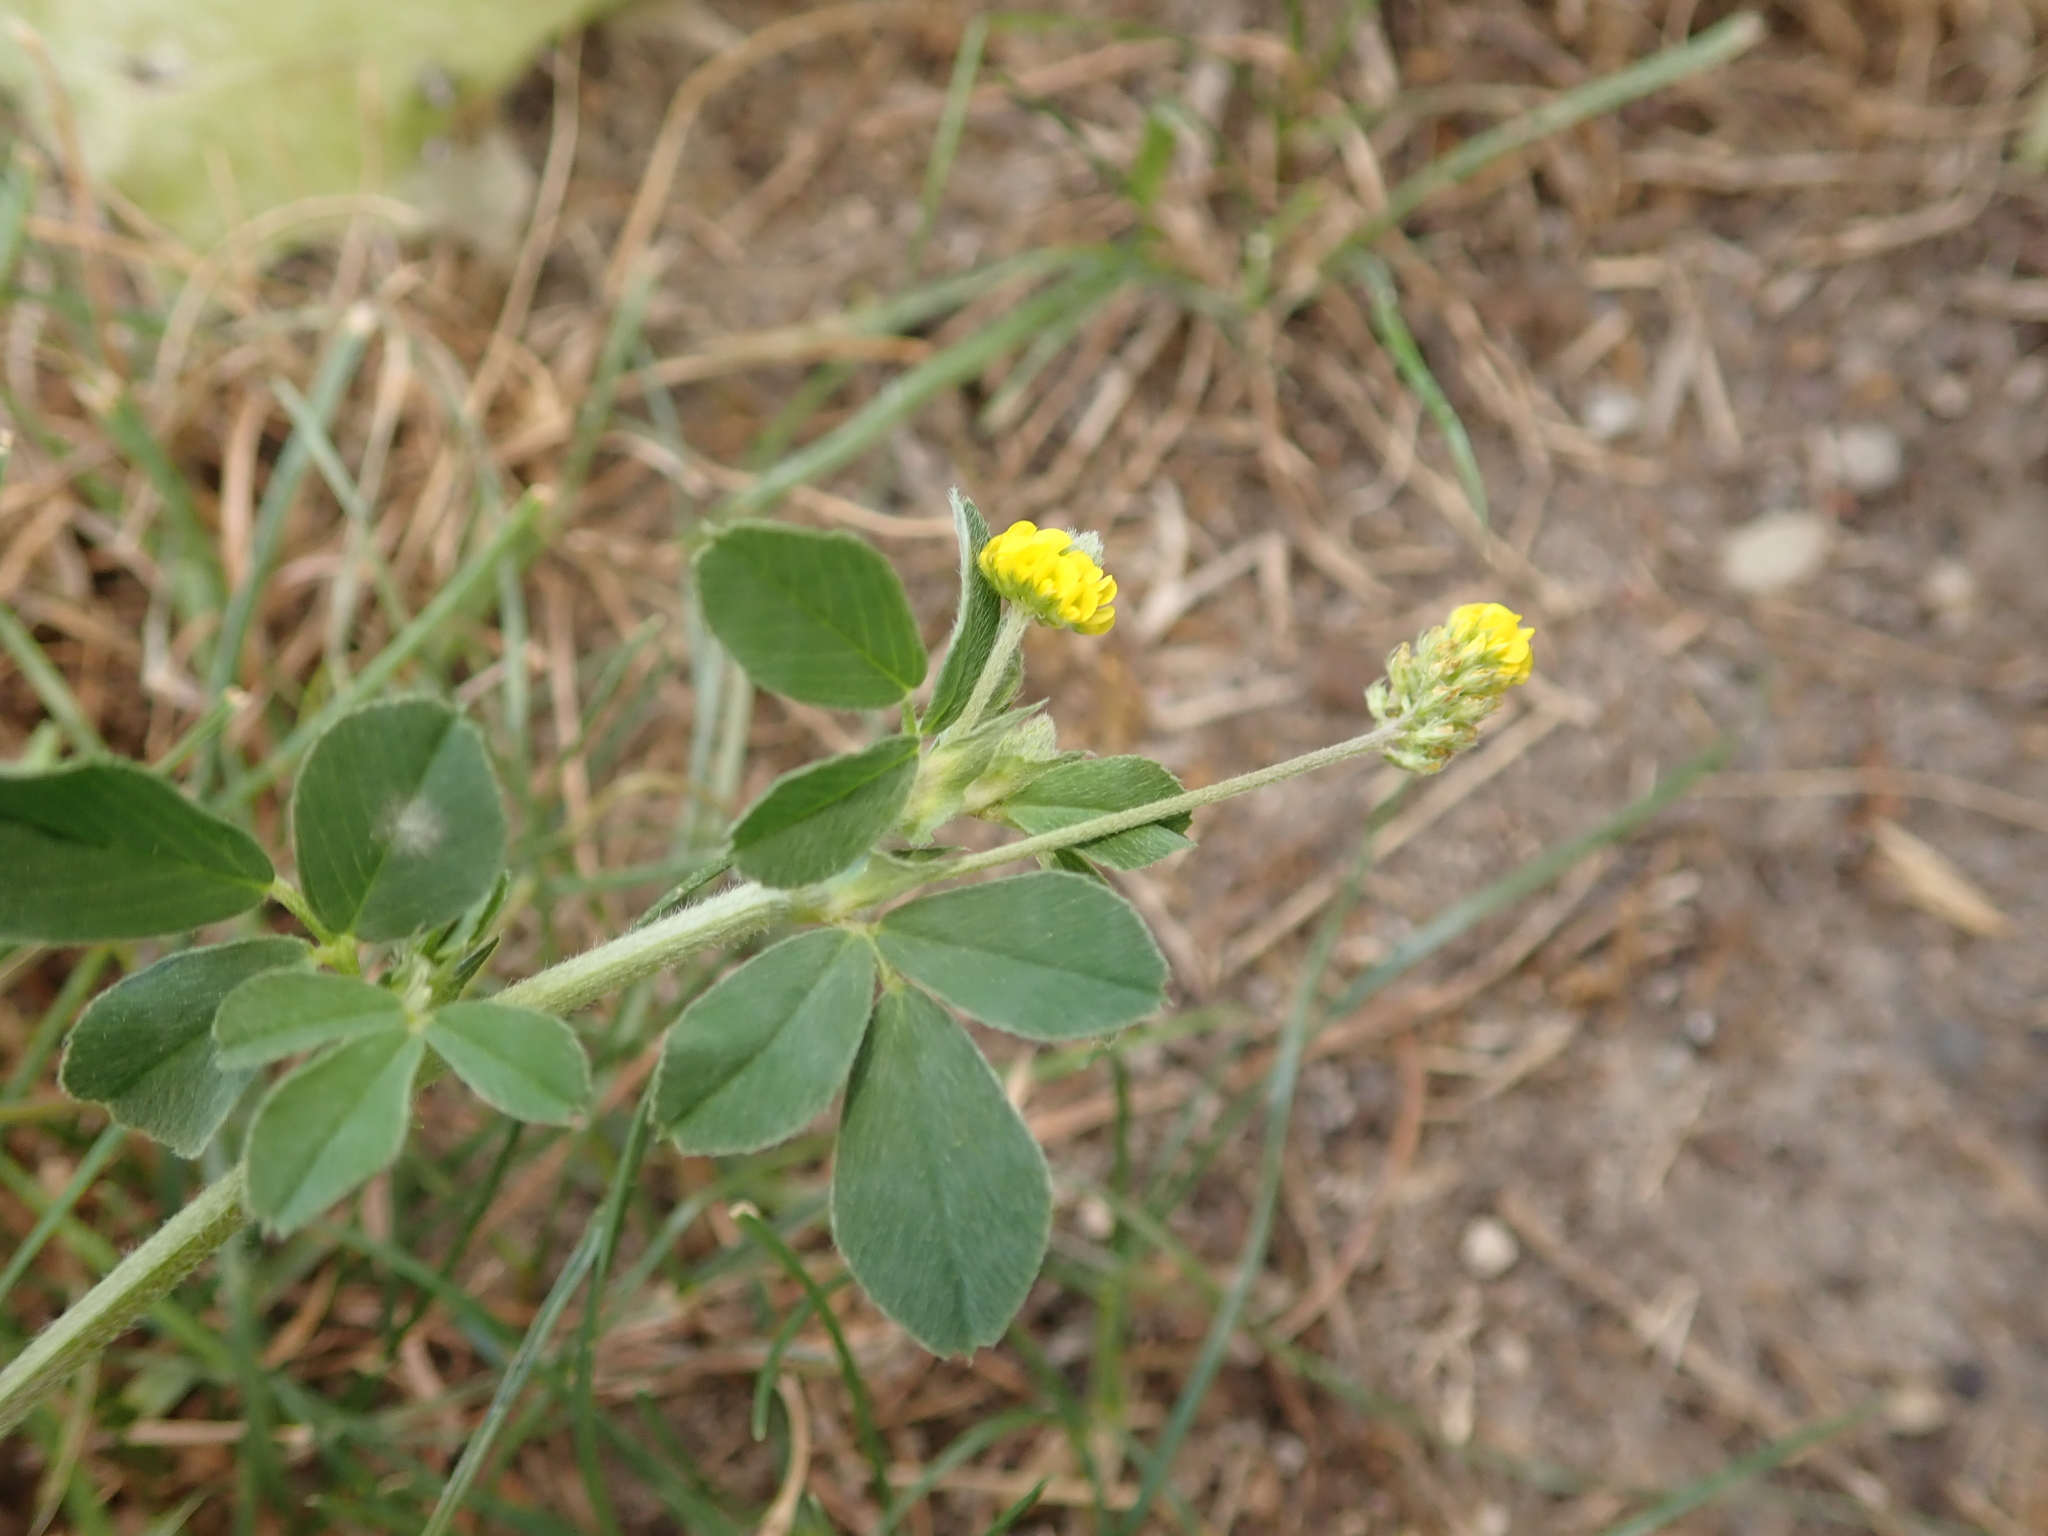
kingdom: Plantae
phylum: Tracheophyta
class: Magnoliopsida
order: Fabales
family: Fabaceae
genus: Medicago
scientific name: Medicago lupulina
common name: Black medick
